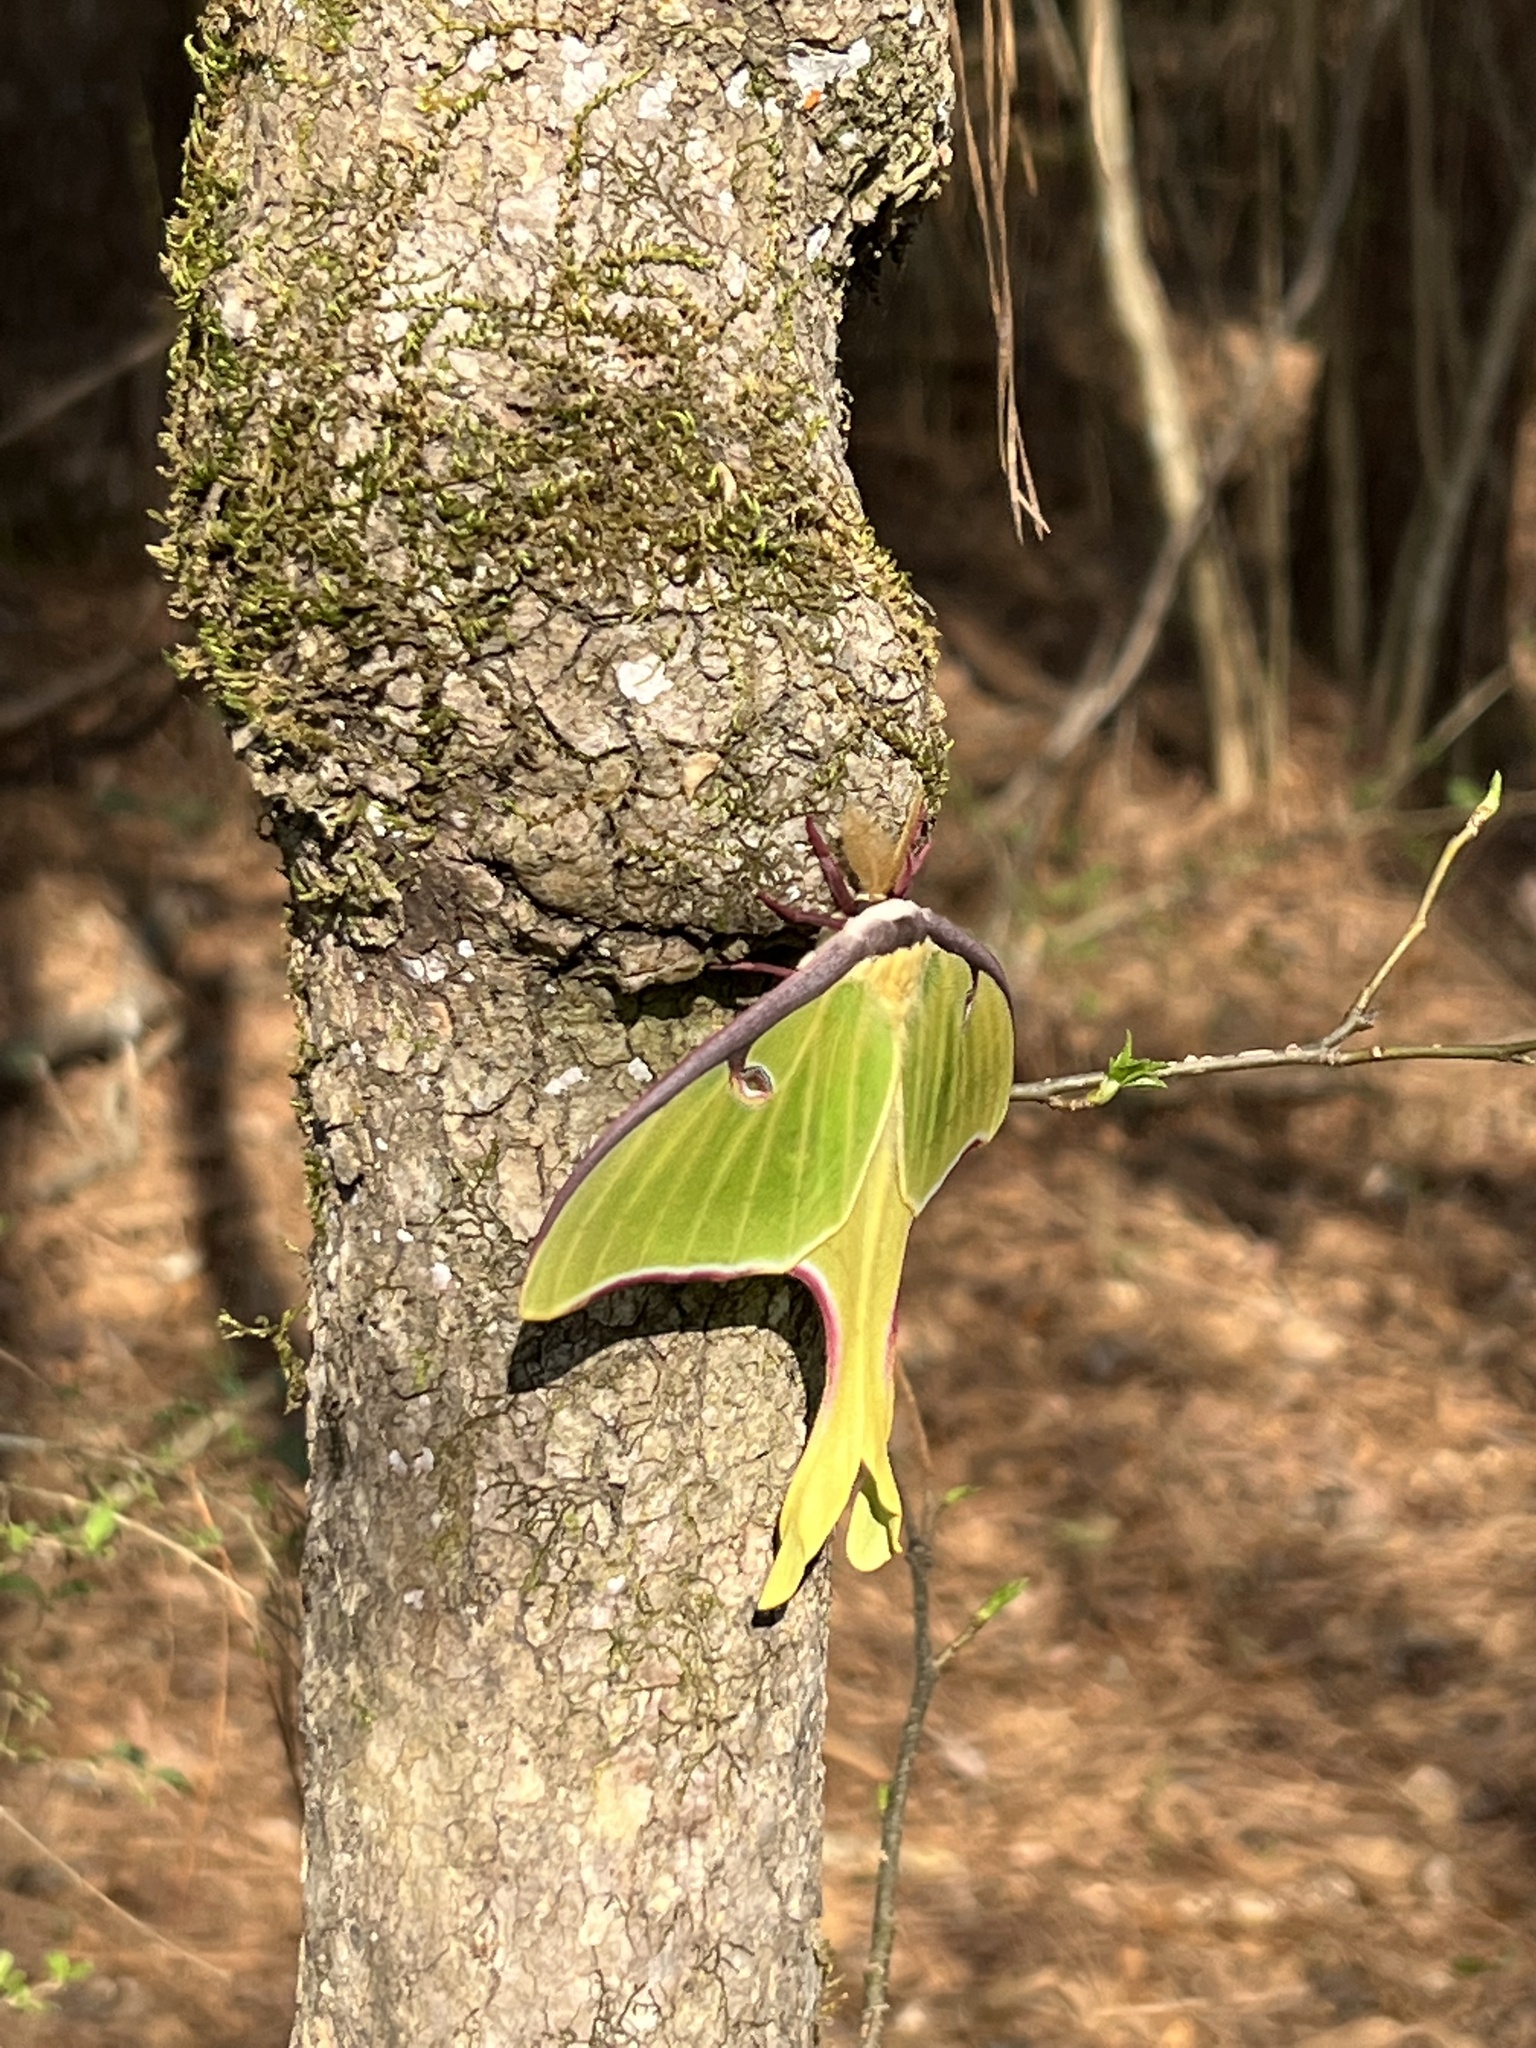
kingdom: Animalia
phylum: Arthropoda
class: Insecta
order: Lepidoptera
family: Saturniidae
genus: Actias
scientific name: Actias luna
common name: Luna moth
